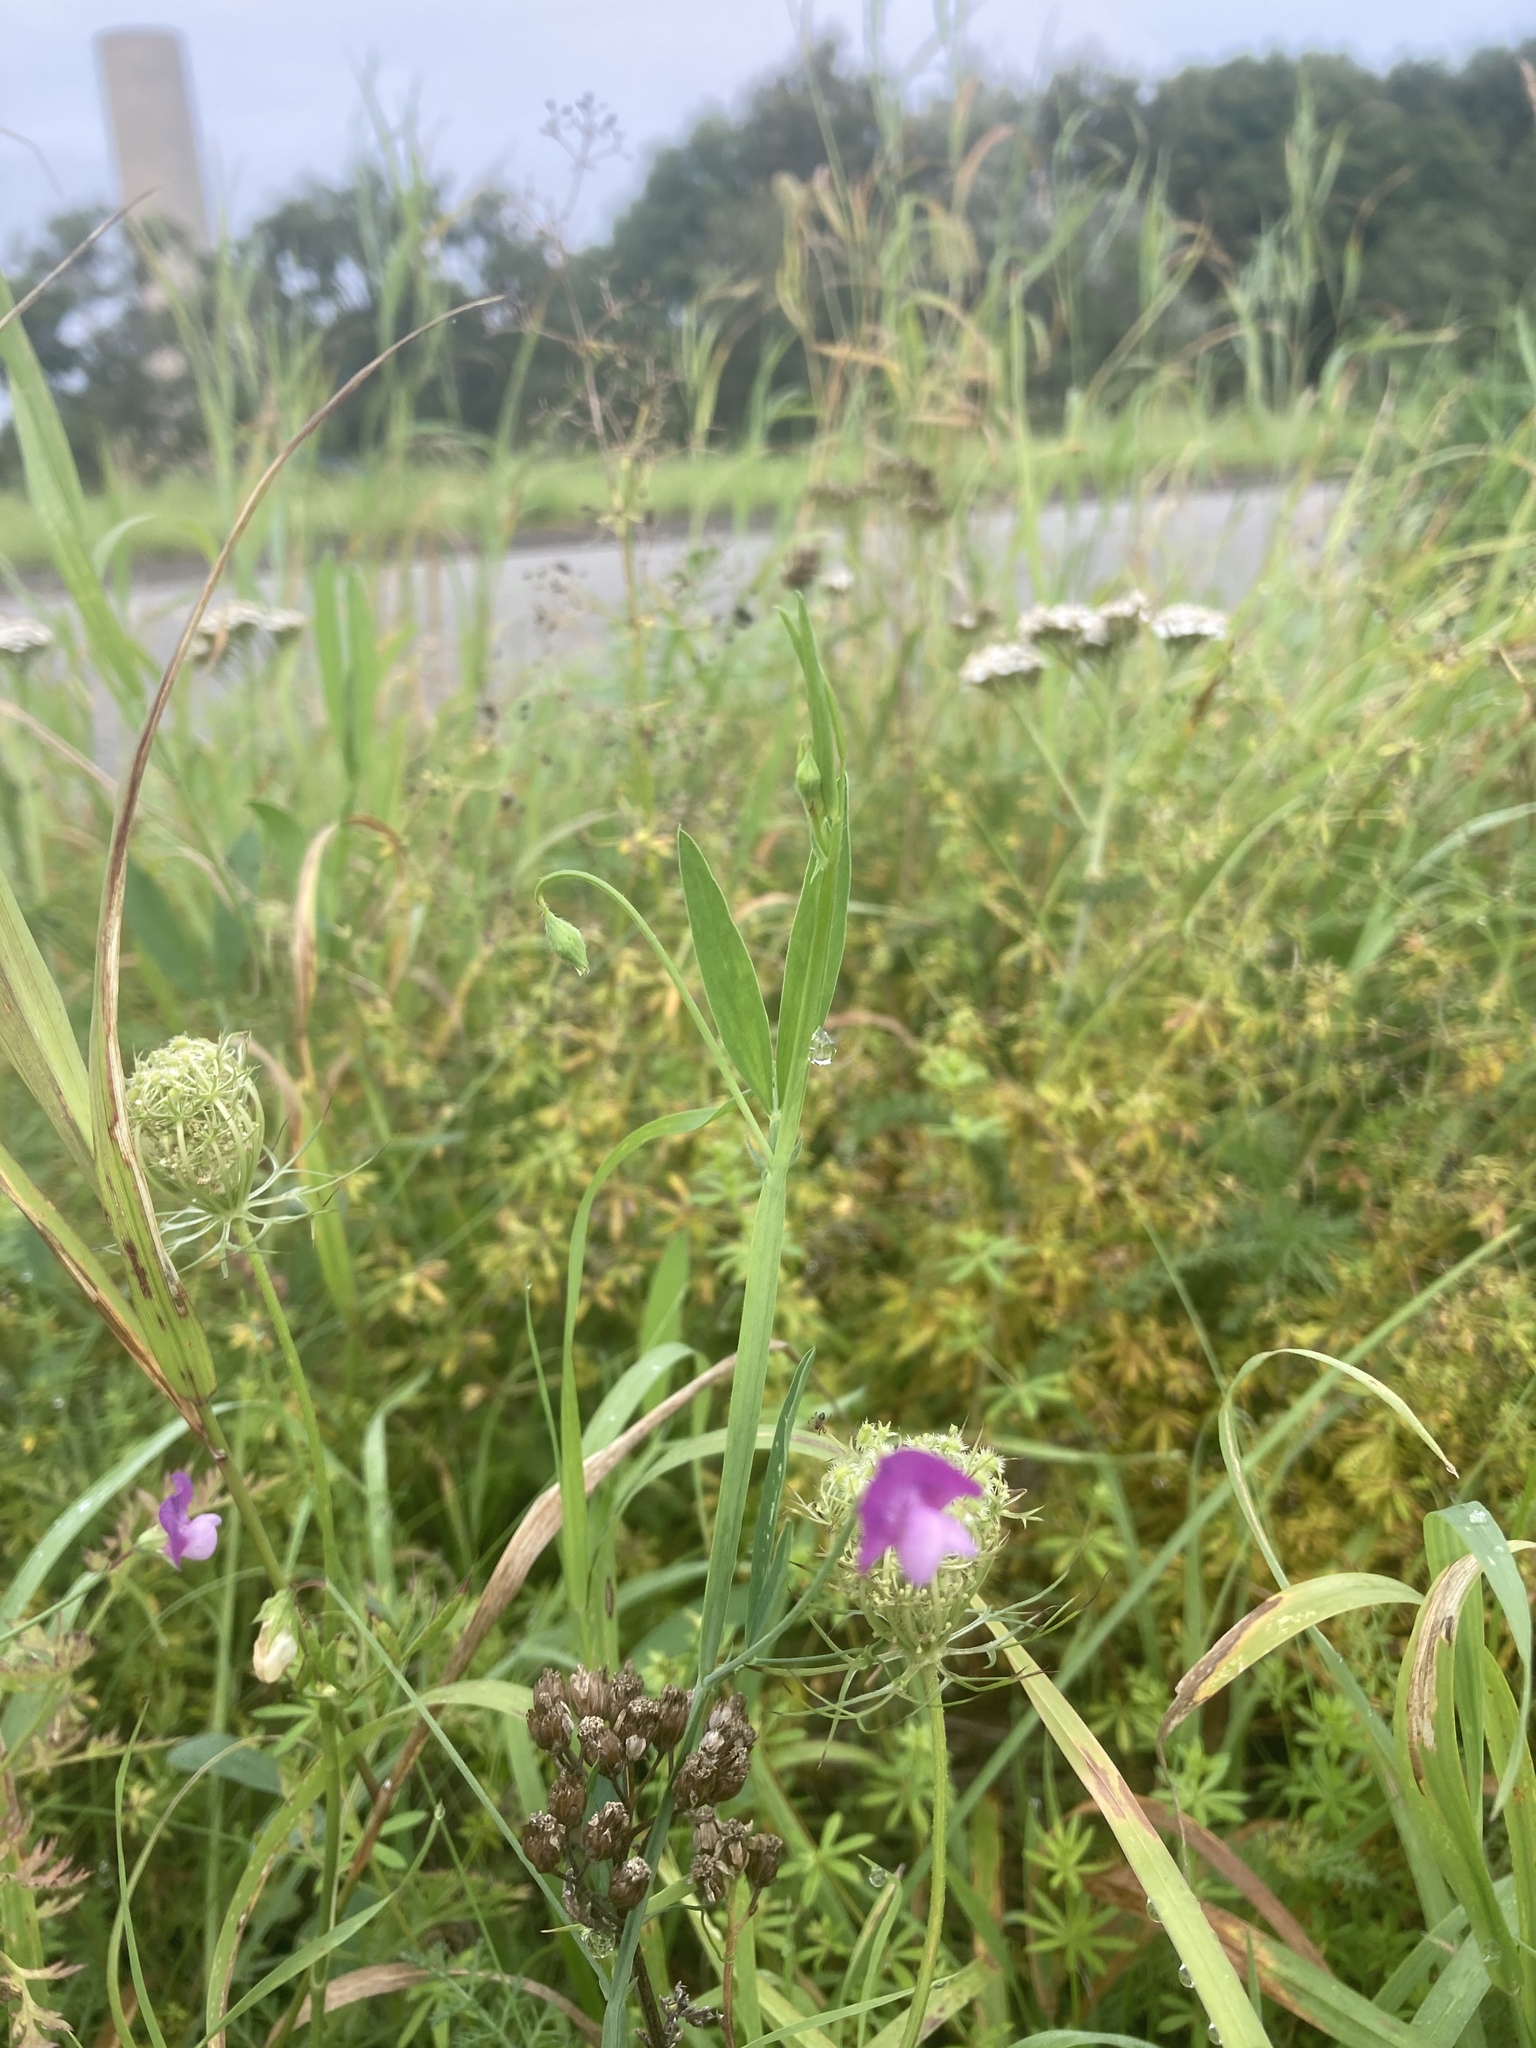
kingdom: Plantae
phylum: Tracheophyta
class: Magnoliopsida
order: Fabales
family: Fabaceae
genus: Lathyrus
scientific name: Lathyrus hirsutus
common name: Hairy vetchling
